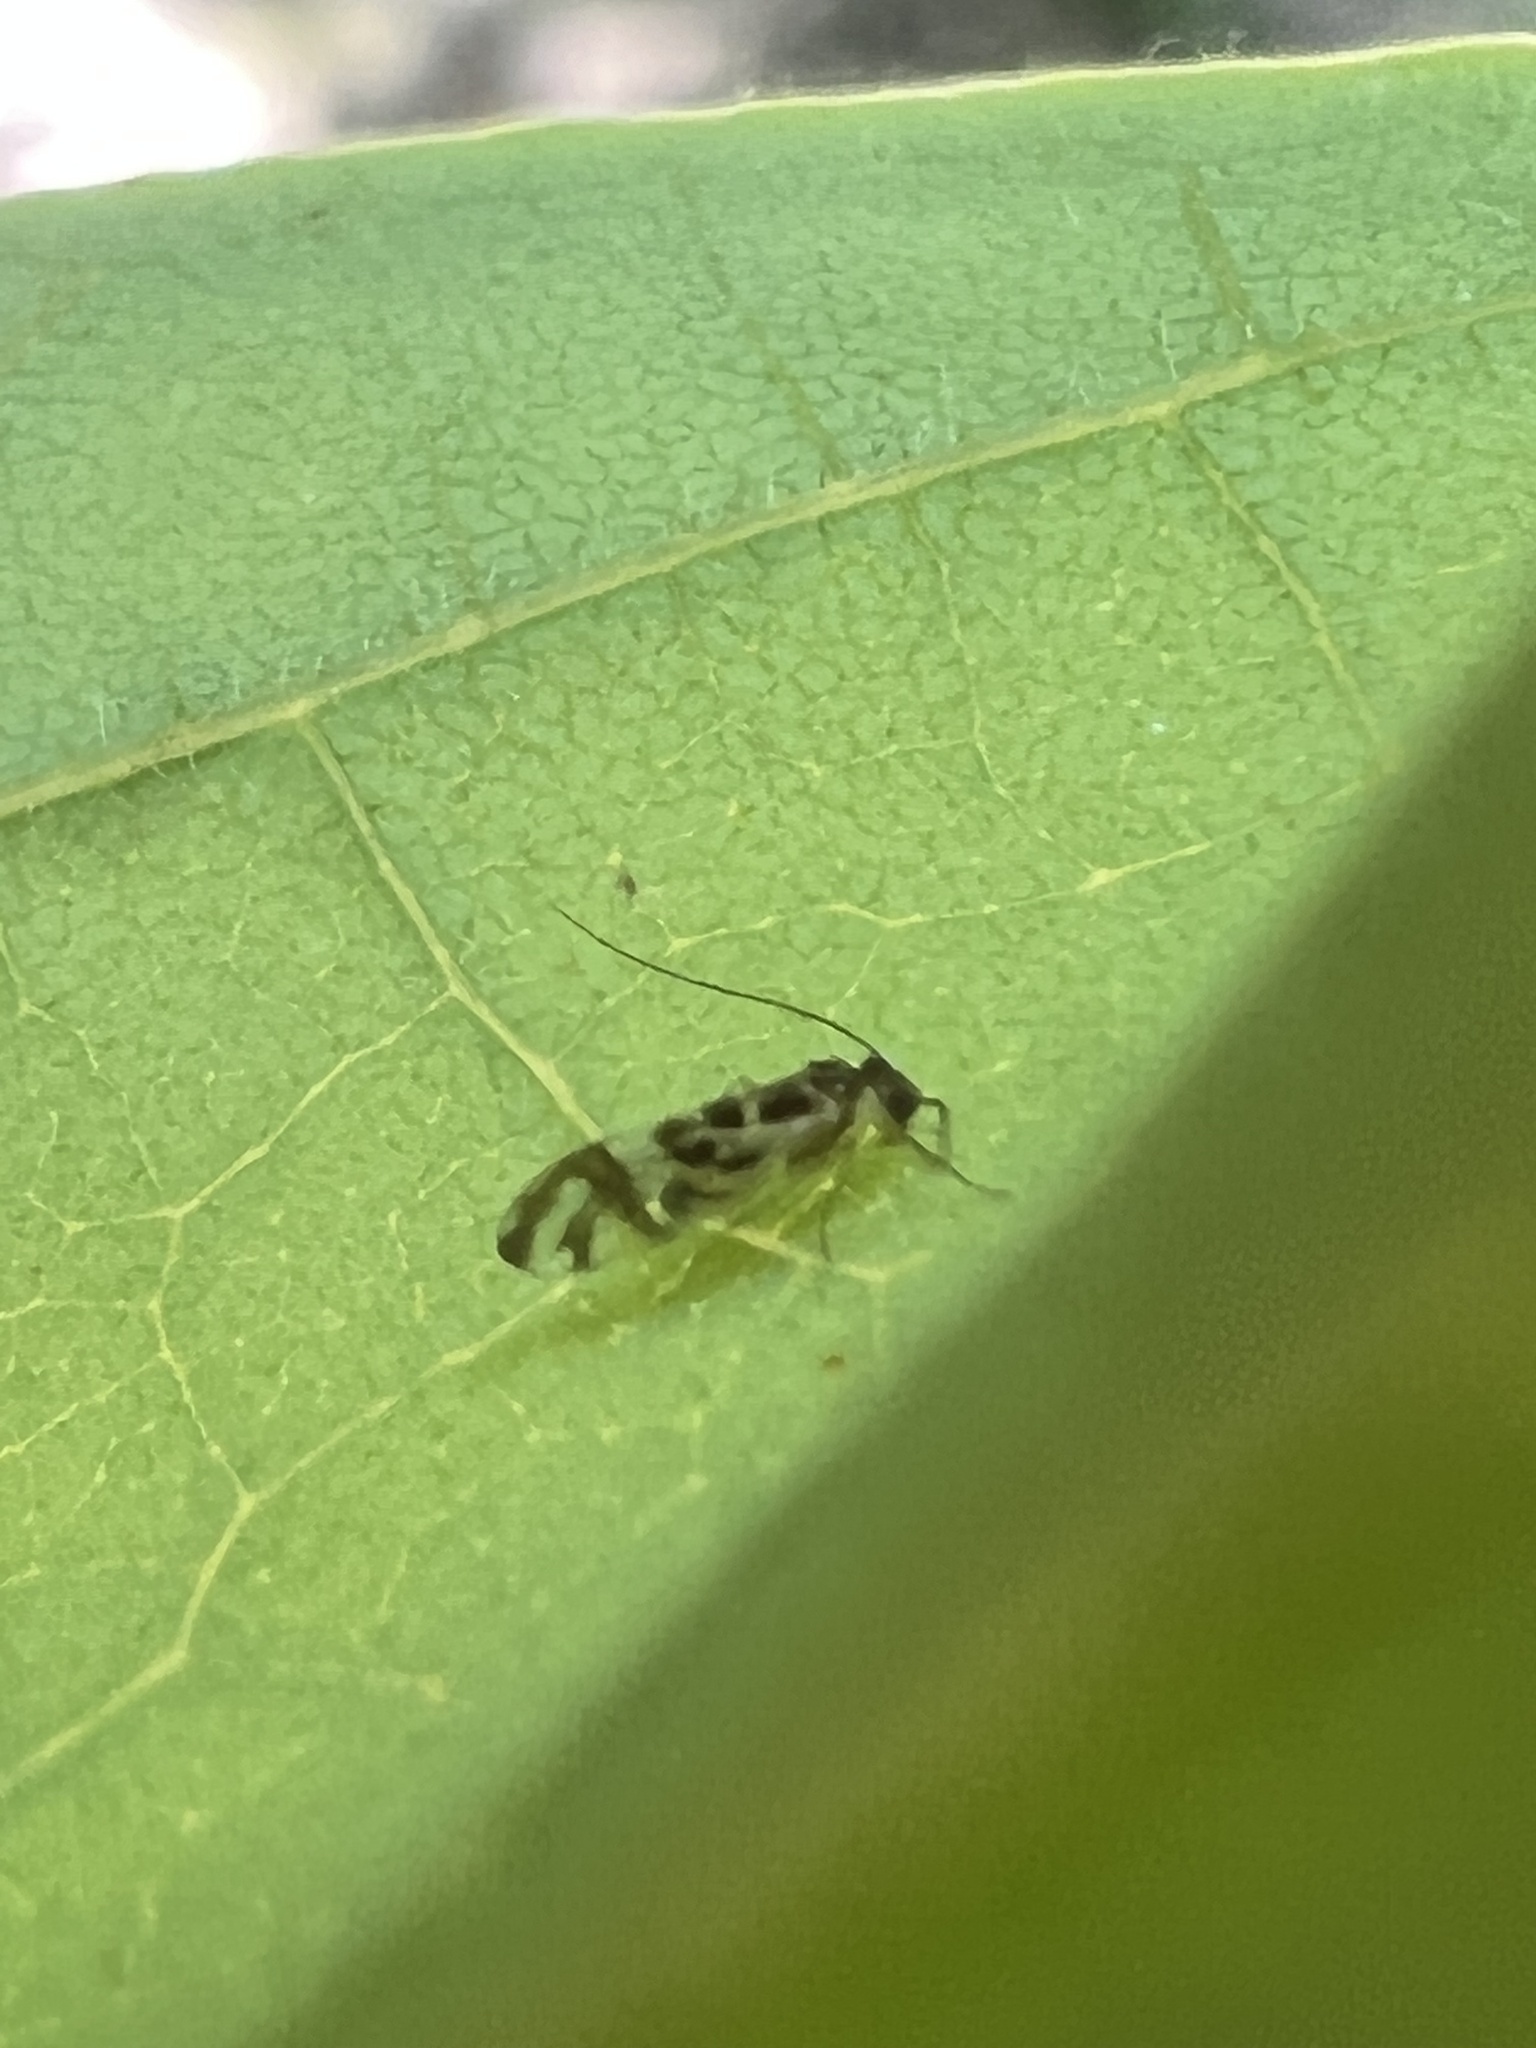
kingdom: Animalia
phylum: Arthropoda
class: Insecta
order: Psocodea
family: Stenopsocidae
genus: Graphopsocus
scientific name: Graphopsocus cruciatus
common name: Lizard bark louse
